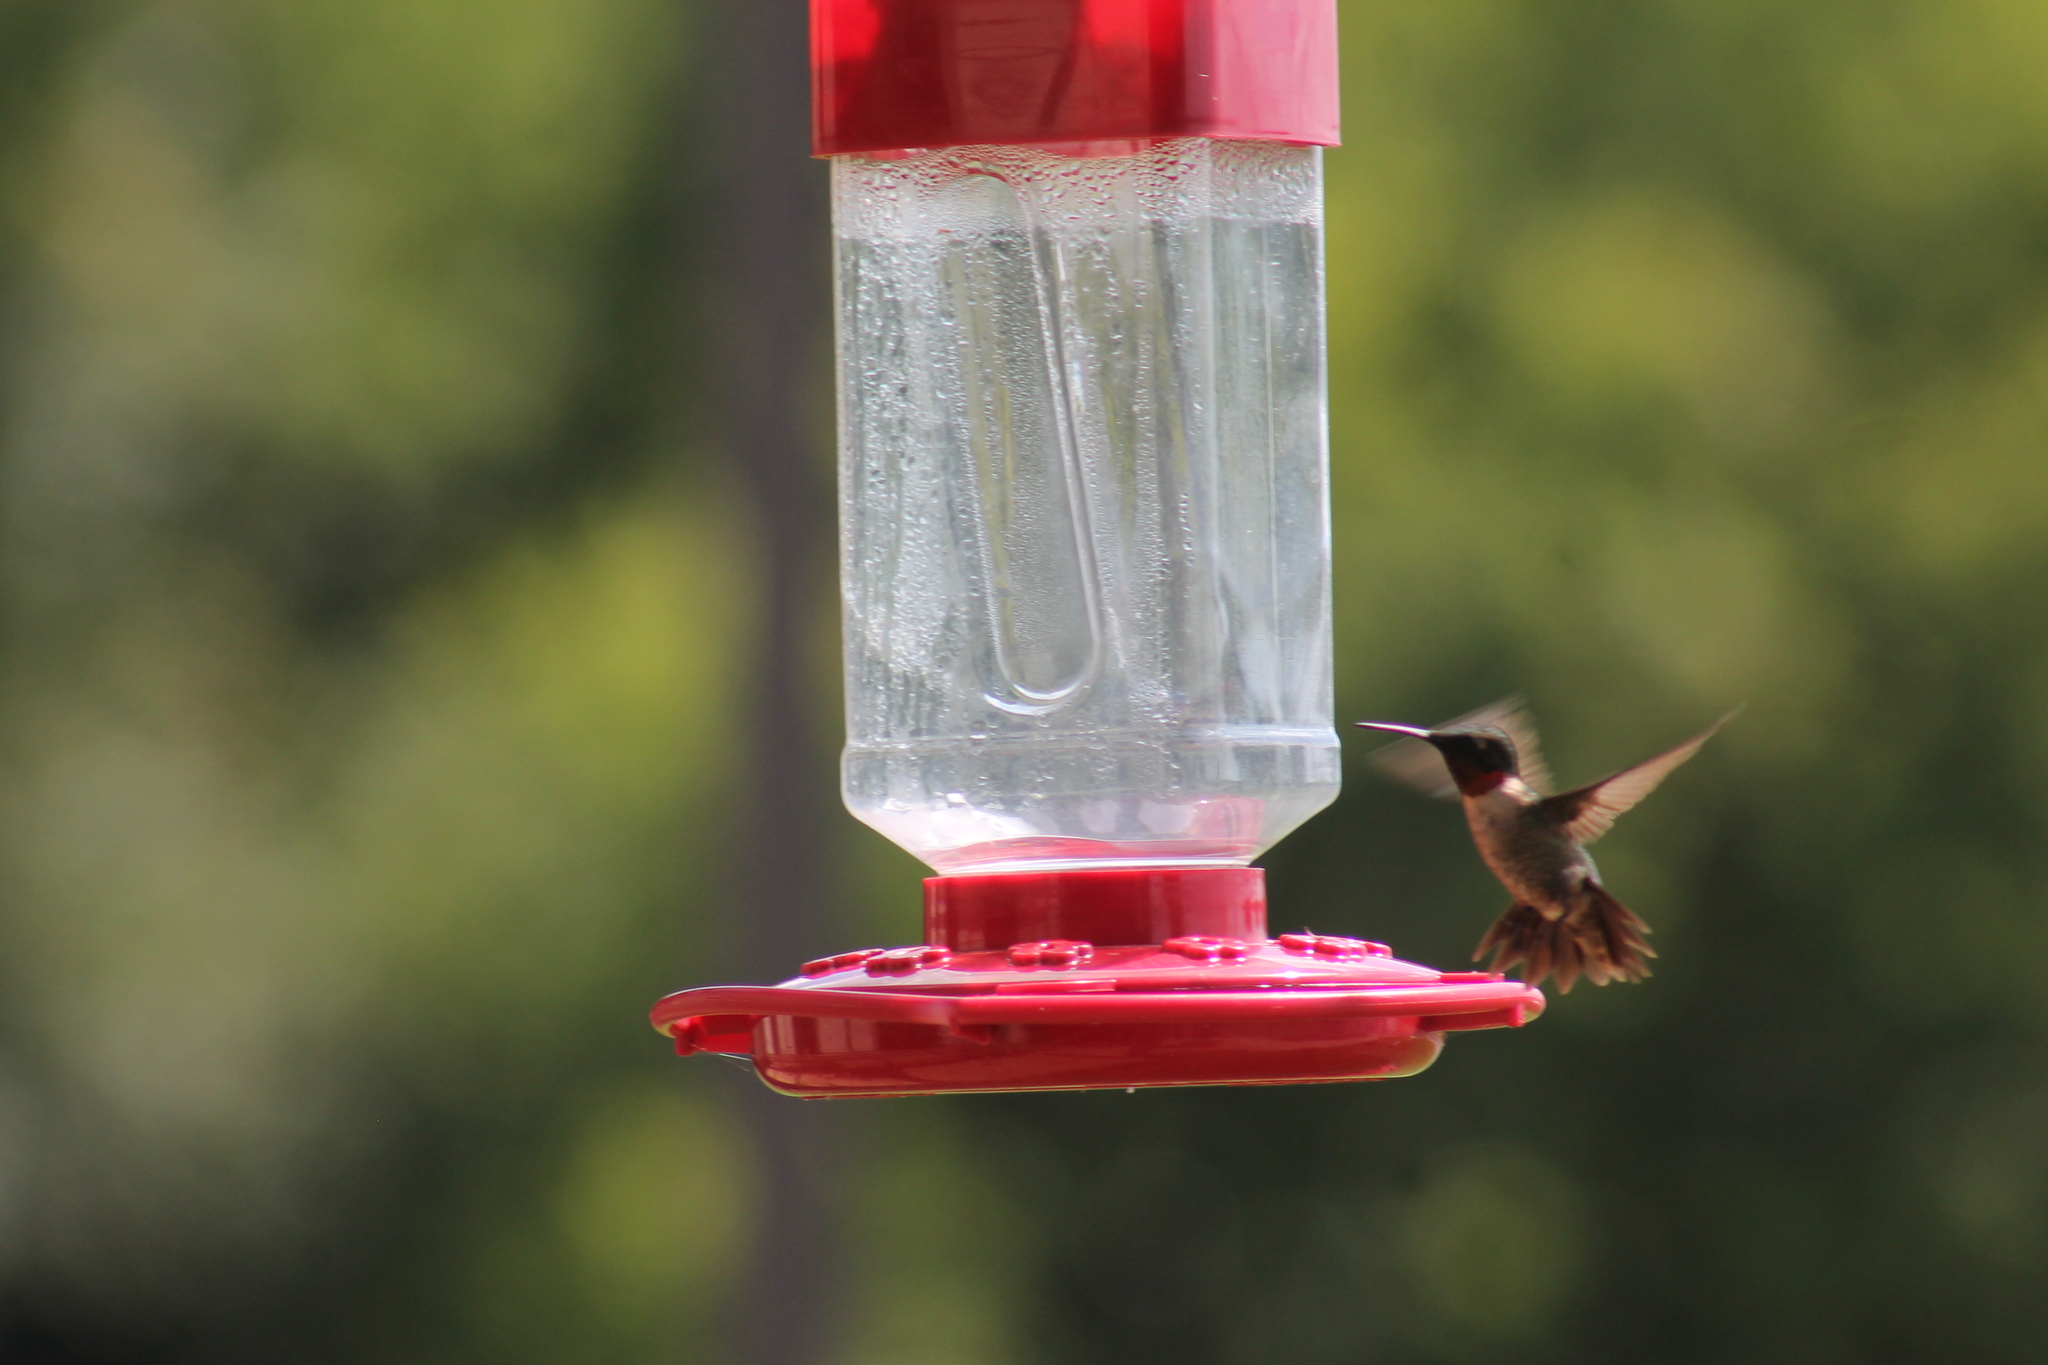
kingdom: Animalia
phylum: Chordata
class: Aves
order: Apodiformes
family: Trochilidae
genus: Archilochus
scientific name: Archilochus colubris
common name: Ruby-throated hummingbird
